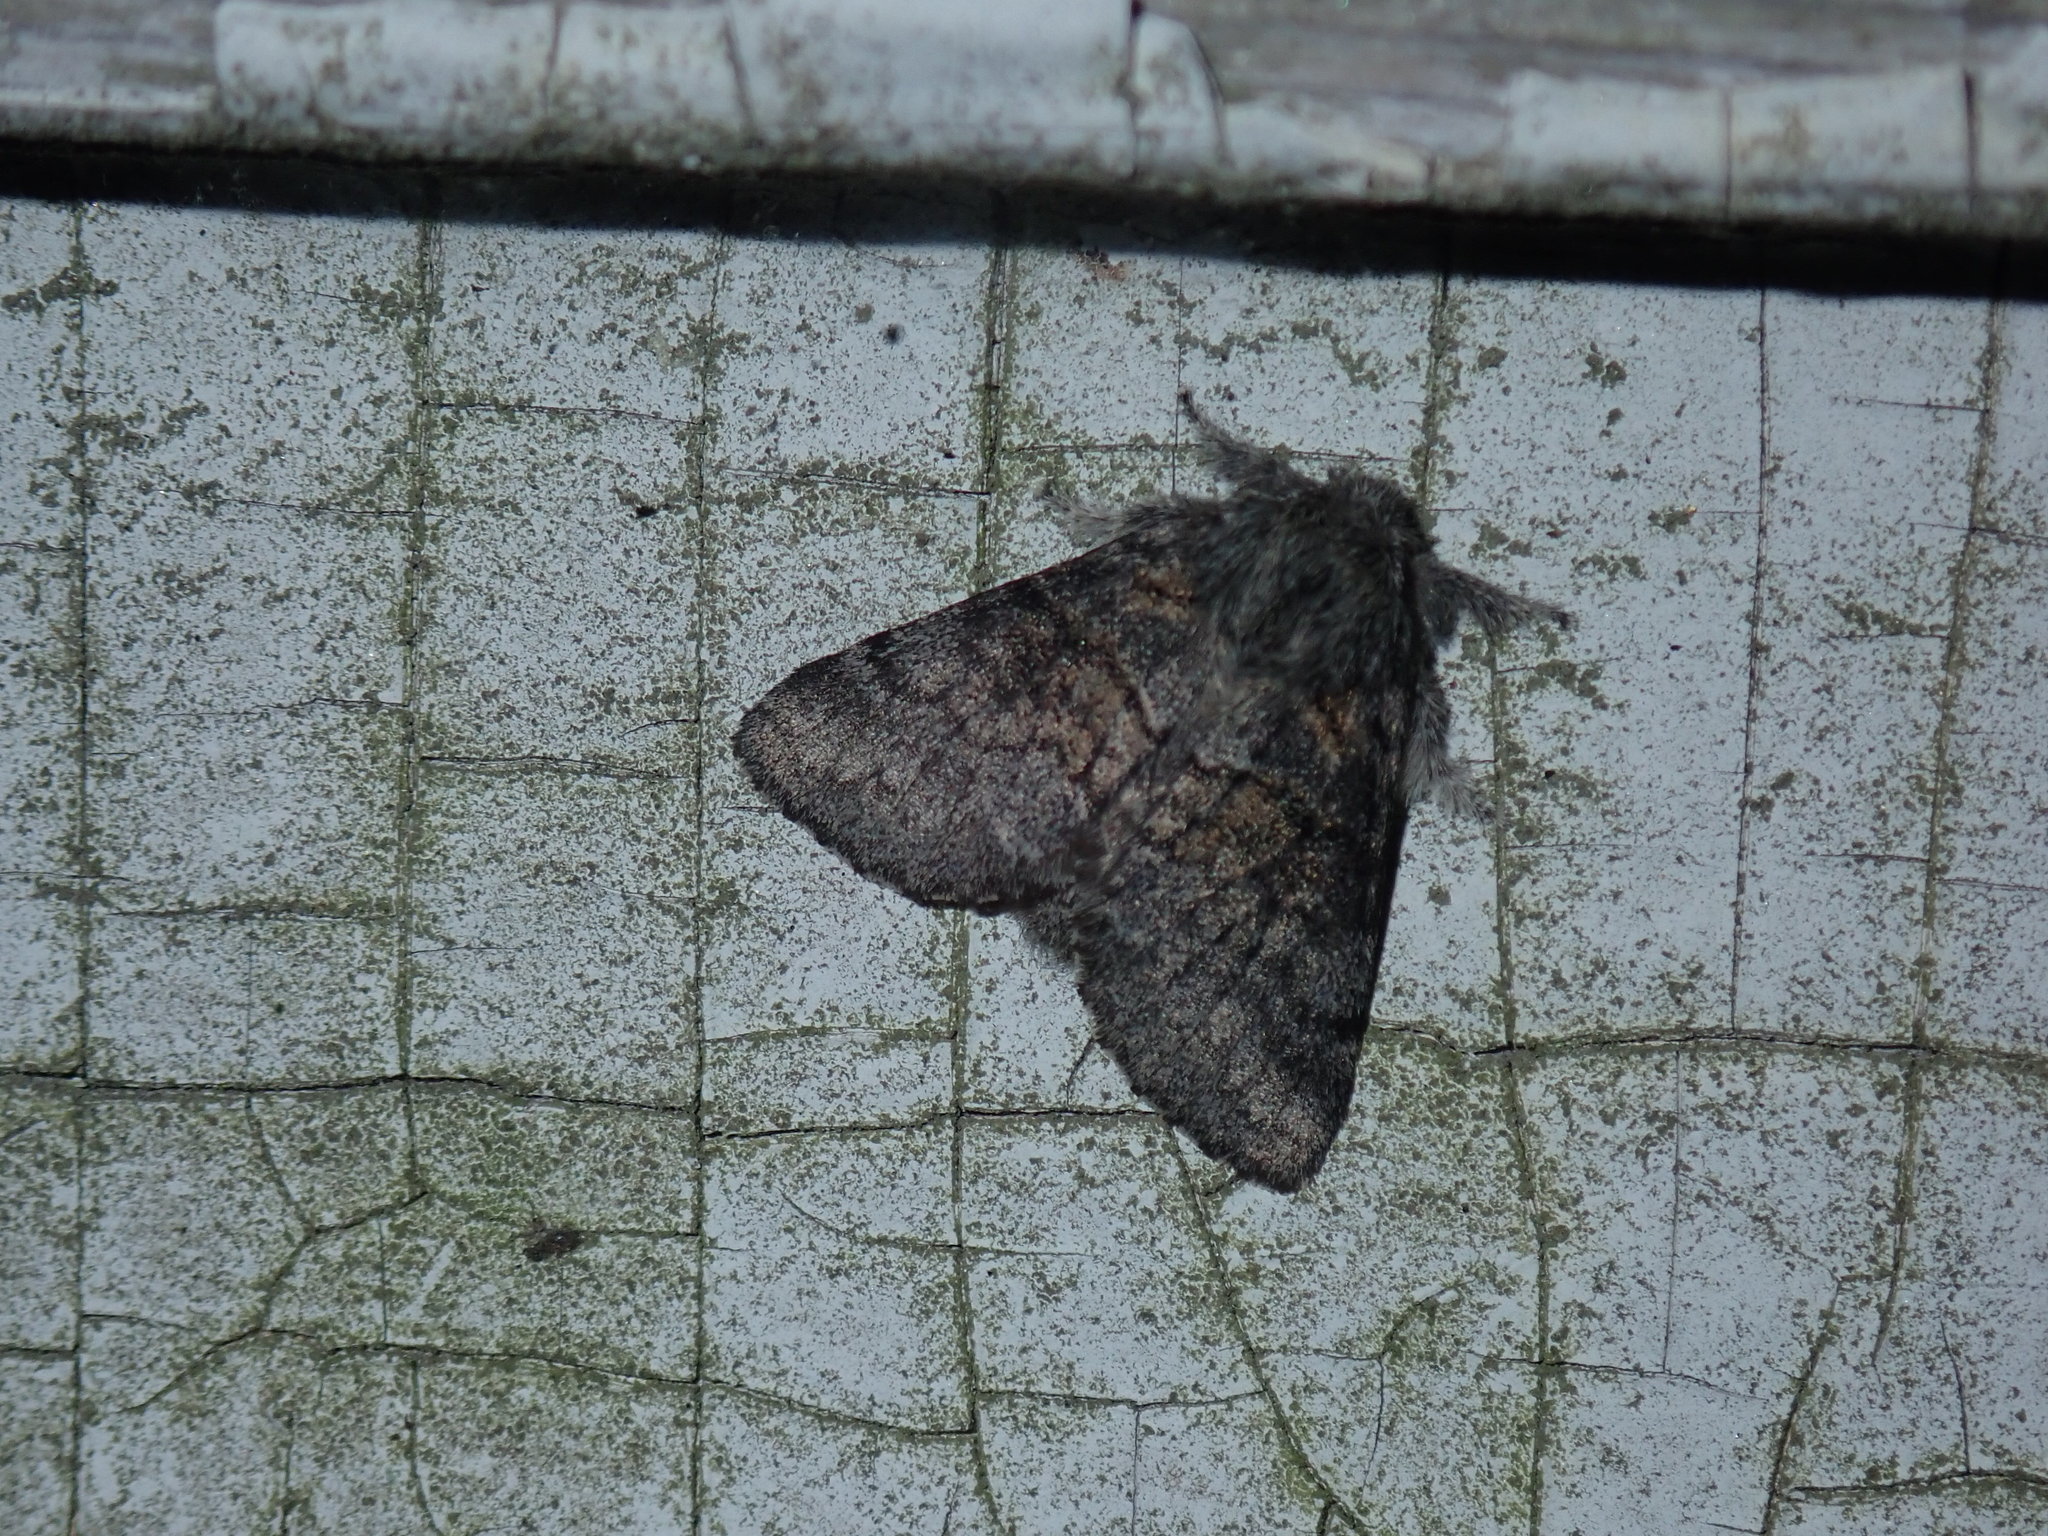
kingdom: Animalia
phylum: Arthropoda
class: Insecta
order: Lepidoptera
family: Notodontidae
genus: Gluphisia
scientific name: Gluphisia septentrionis
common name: Common gluphisia
